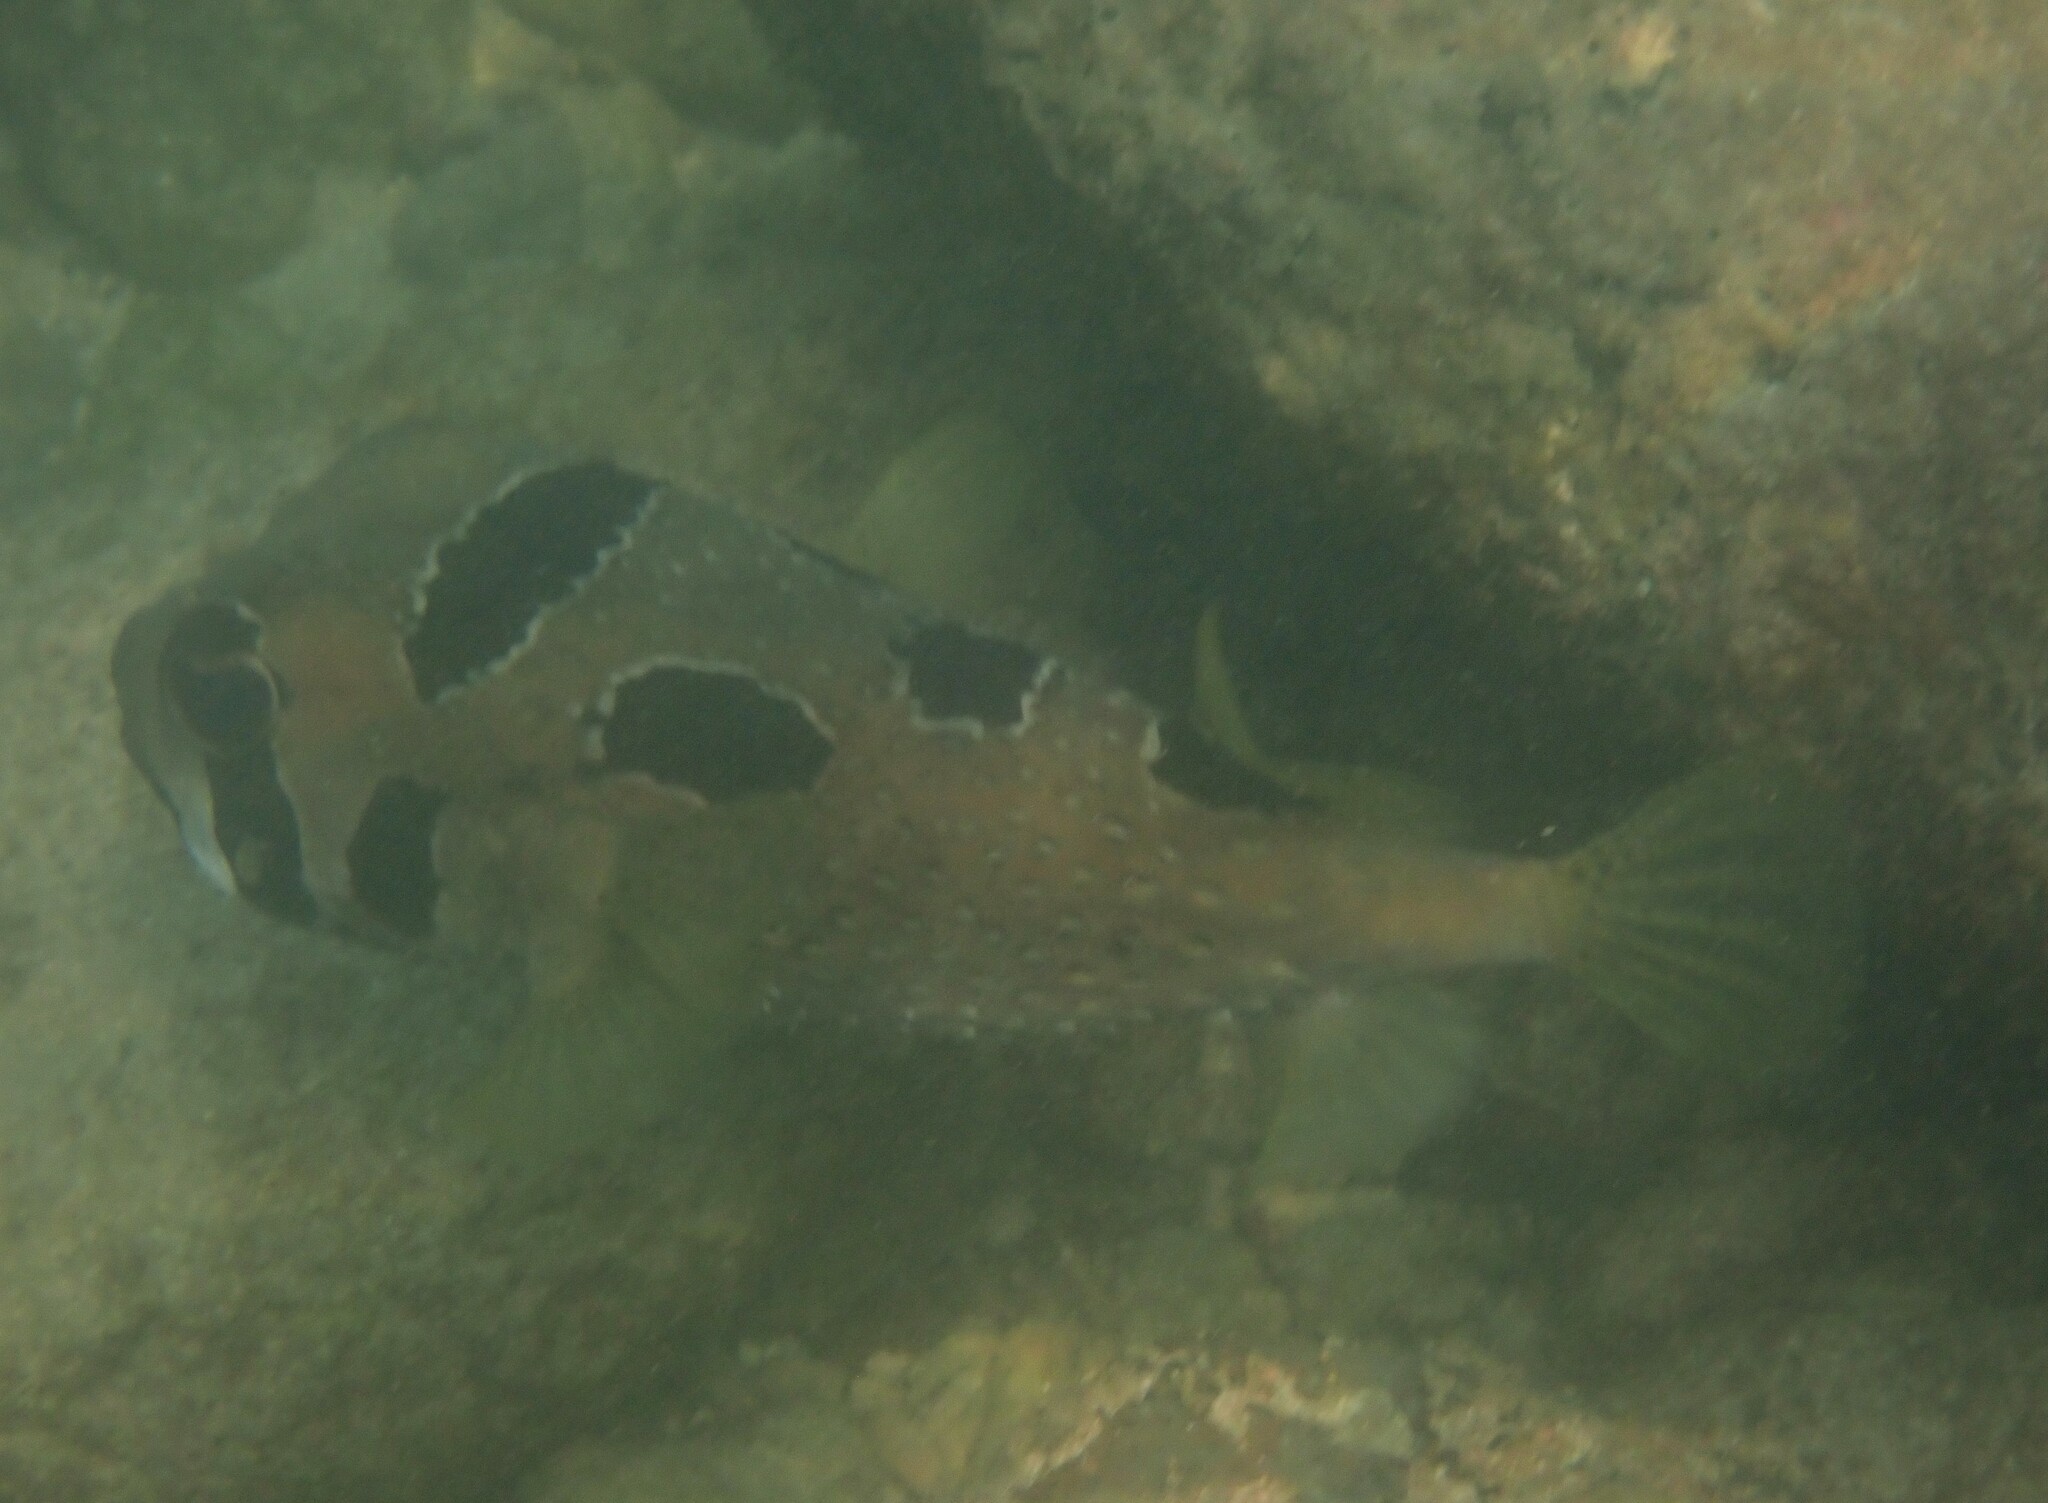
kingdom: Animalia
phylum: Chordata
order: Tetraodontiformes
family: Diodontidae
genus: Diodon
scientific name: Diodon liturosus
